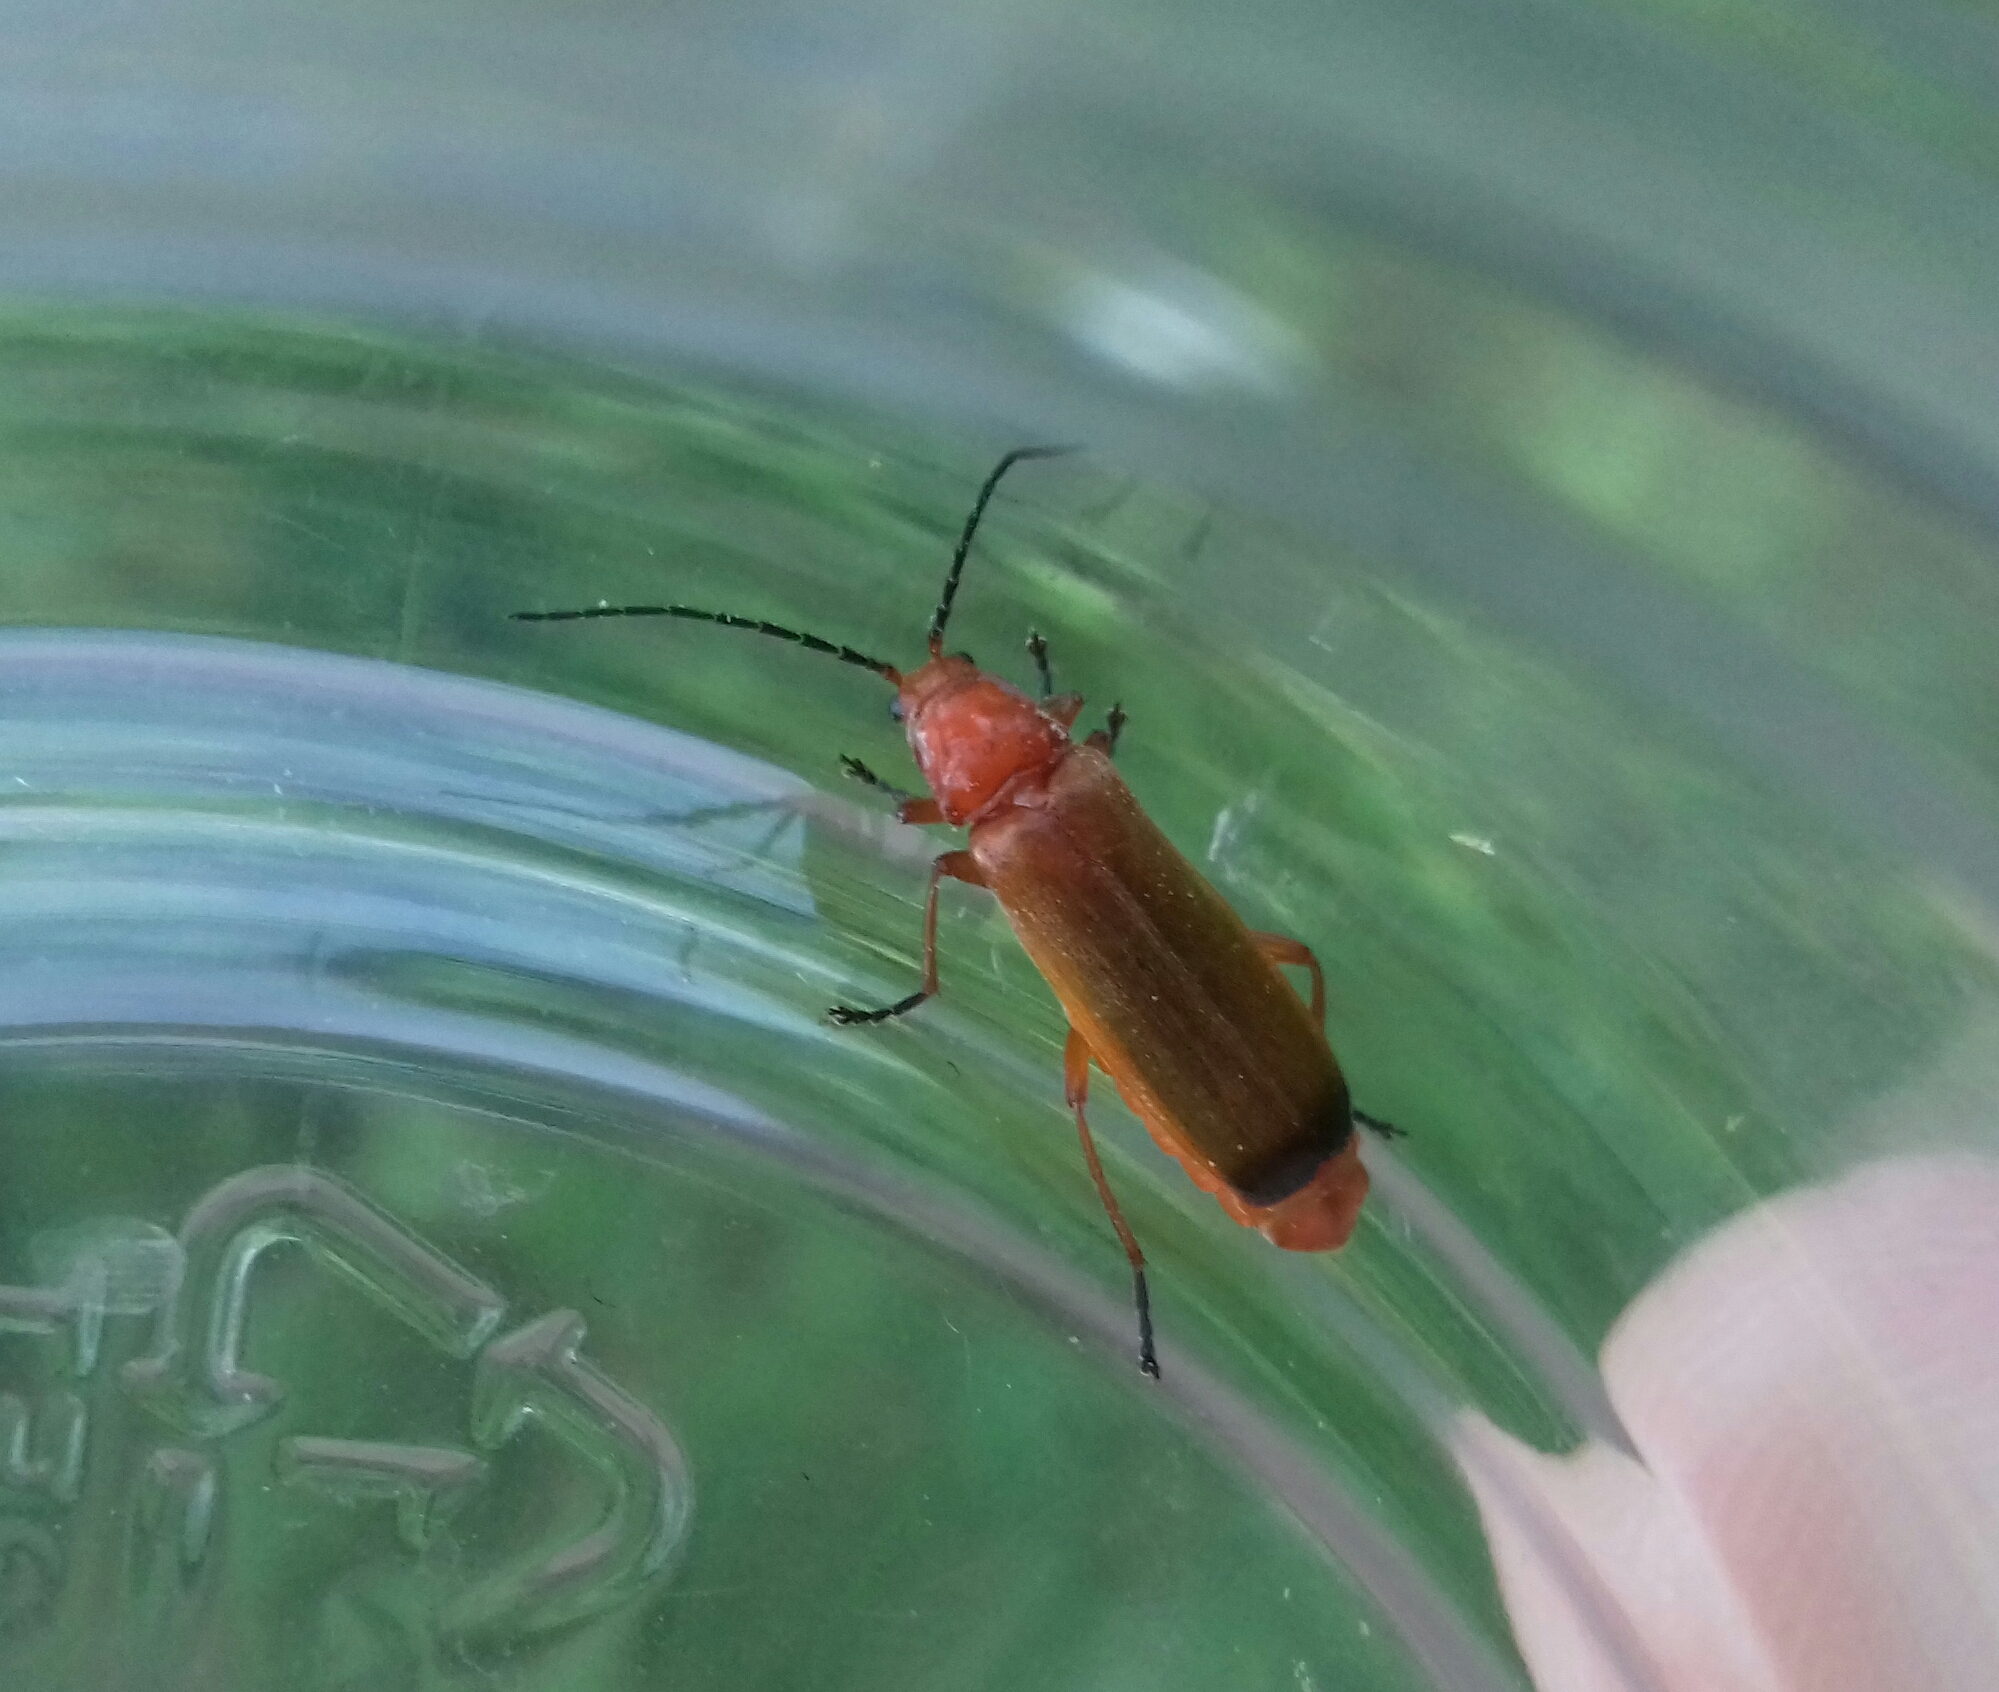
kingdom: Animalia
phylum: Arthropoda
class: Insecta
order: Coleoptera
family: Cantharidae
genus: Rhagonycha
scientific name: Rhagonycha fulva
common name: Common red soldier beetle
